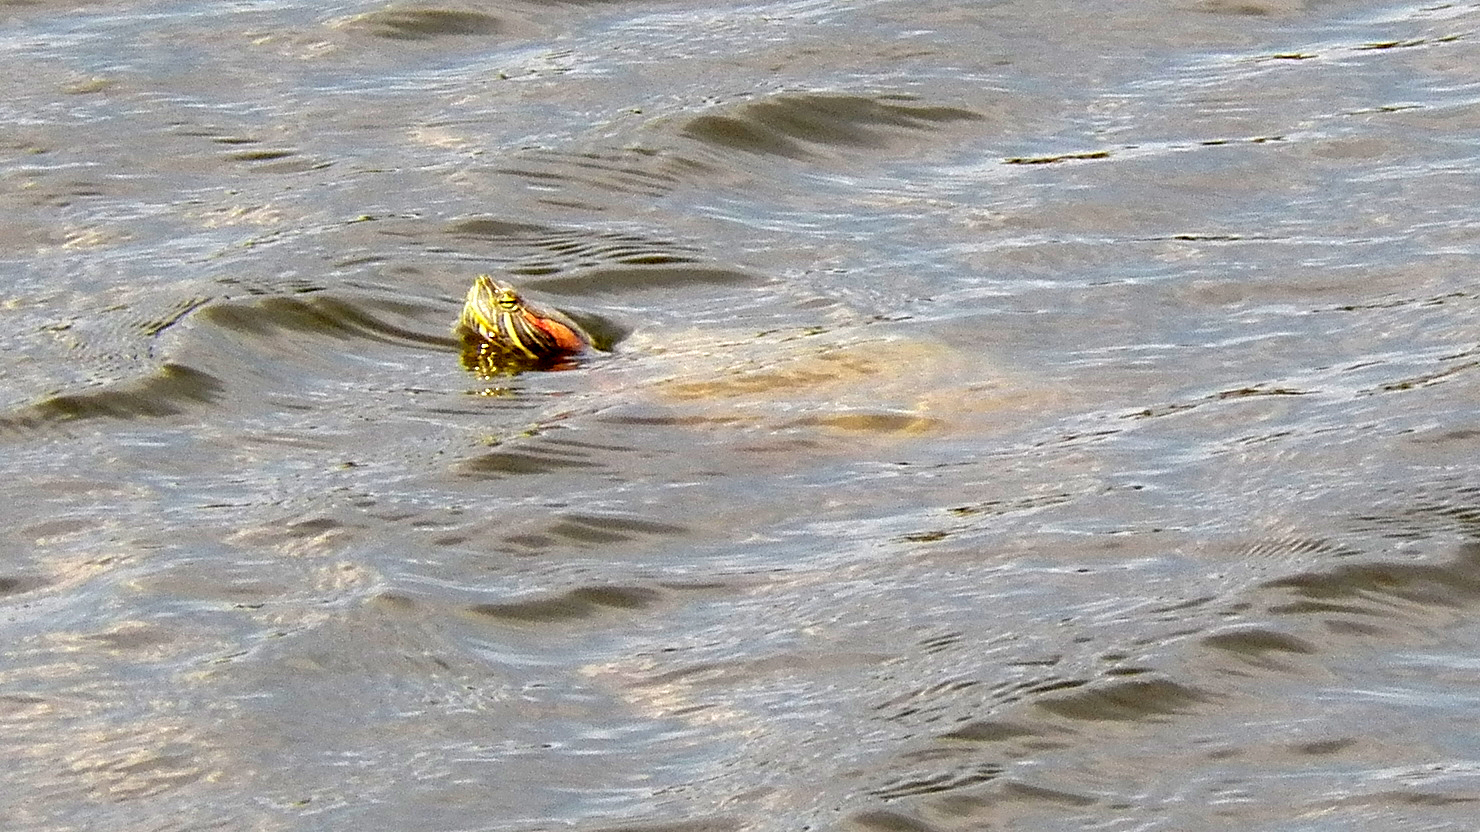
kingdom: Animalia
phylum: Chordata
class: Testudines
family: Emydidae
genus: Trachemys
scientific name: Trachemys scripta
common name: Slider
